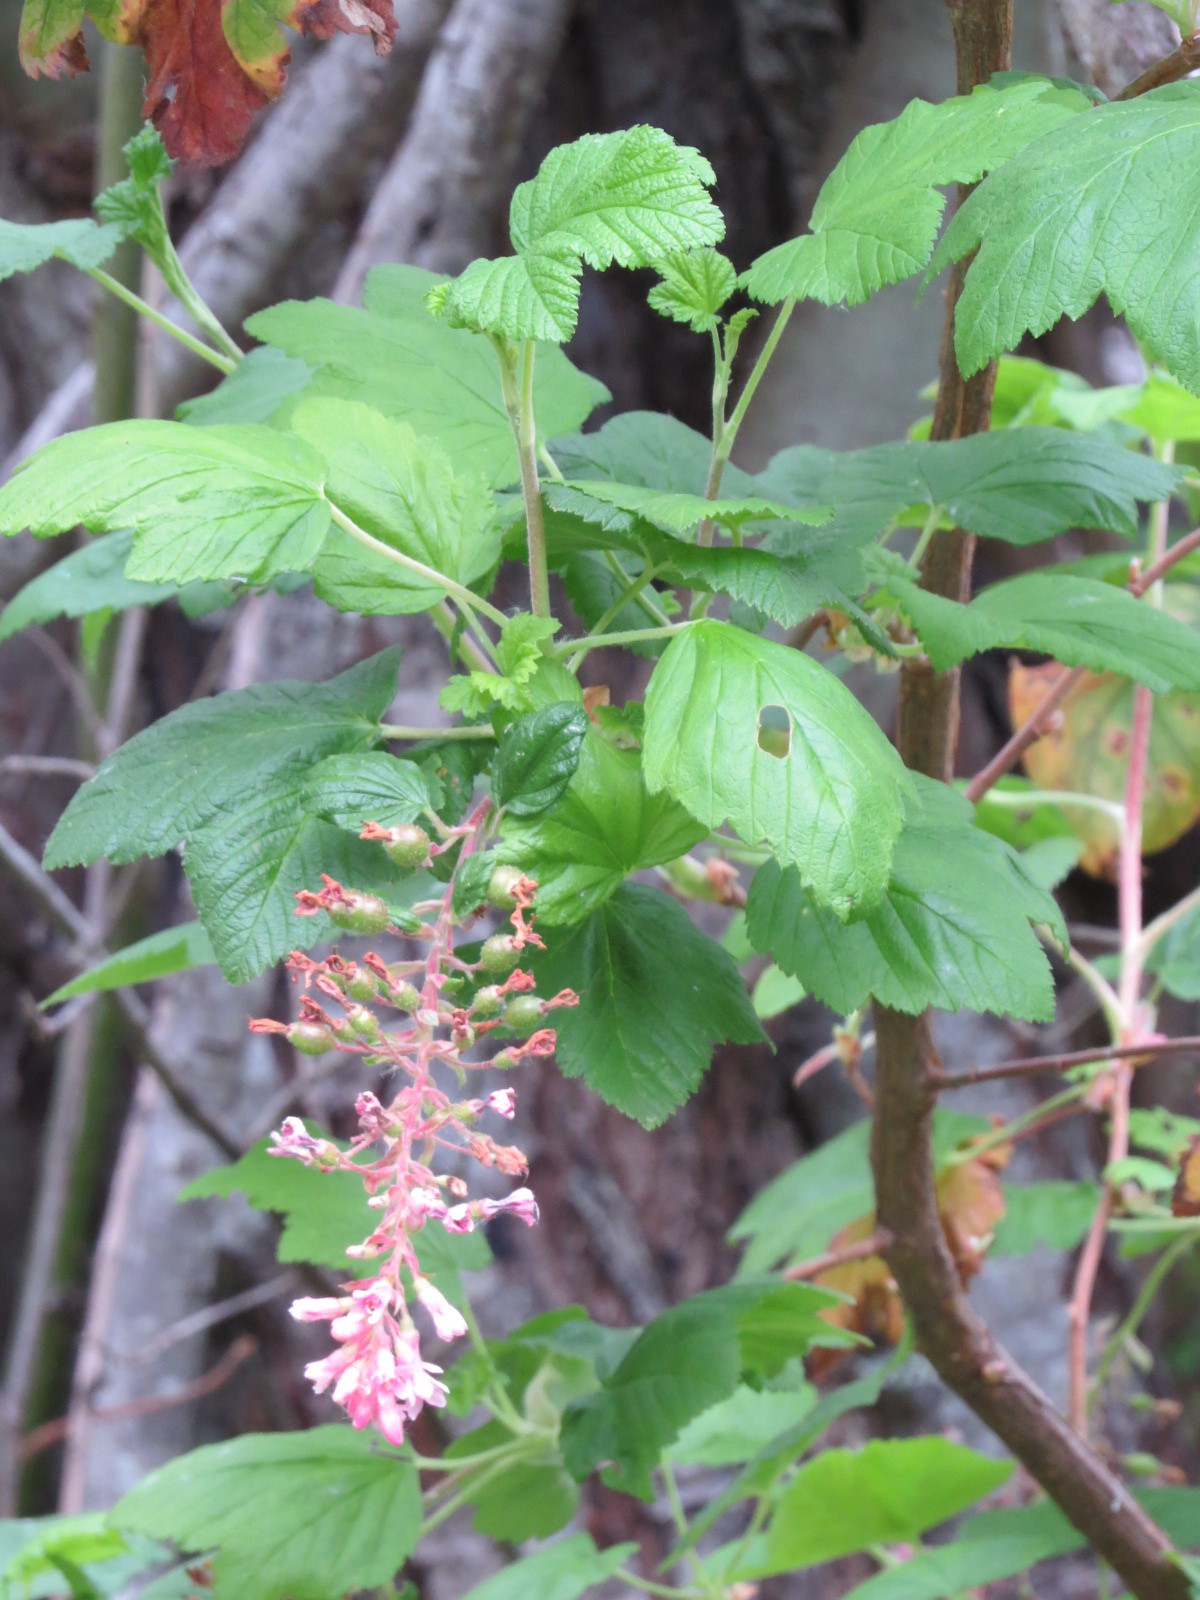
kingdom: Plantae
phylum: Tracheophyta
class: Magnoliopsida
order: Saxifragales
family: Grossulariaceae
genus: Ribes
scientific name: Ribes sanguineum
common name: Flowering currant
